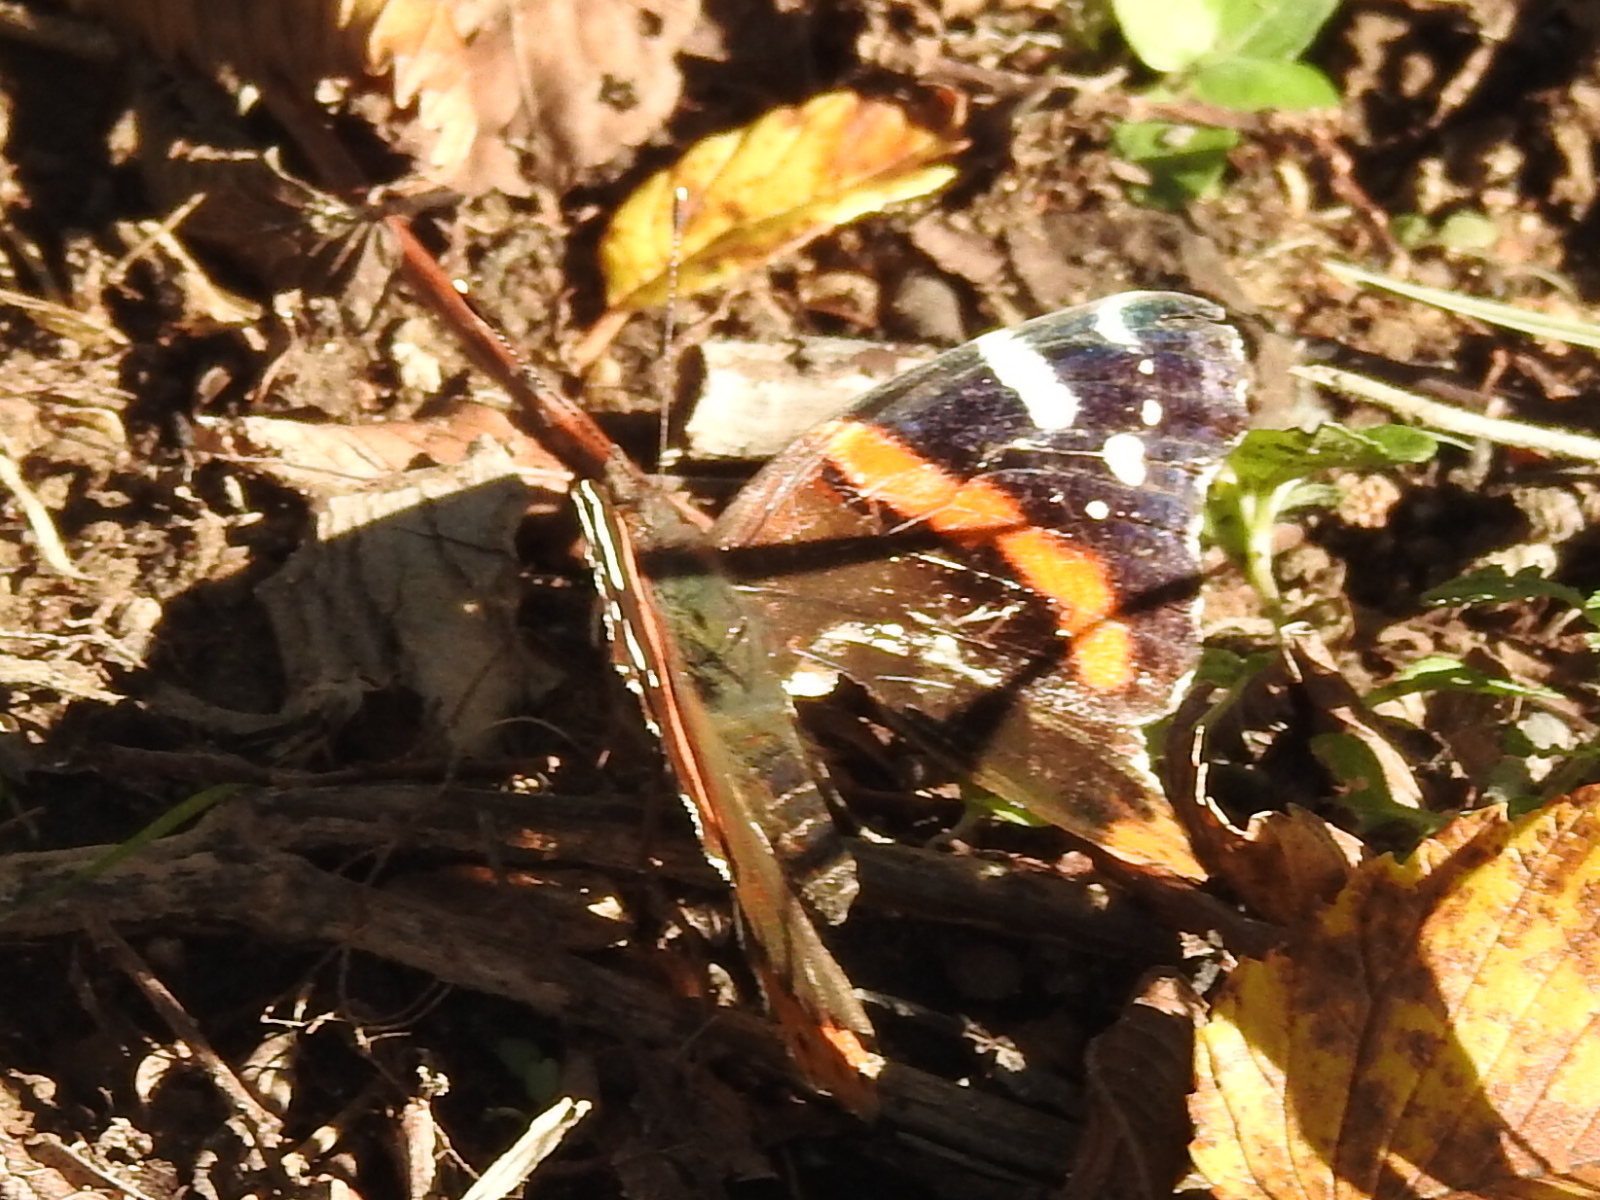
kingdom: Animalia
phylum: Arthropoda
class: Insecta
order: Lepidoptera
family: Nymphalidae
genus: Vanessa
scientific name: Vanessa atalanta
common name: Red admiral
